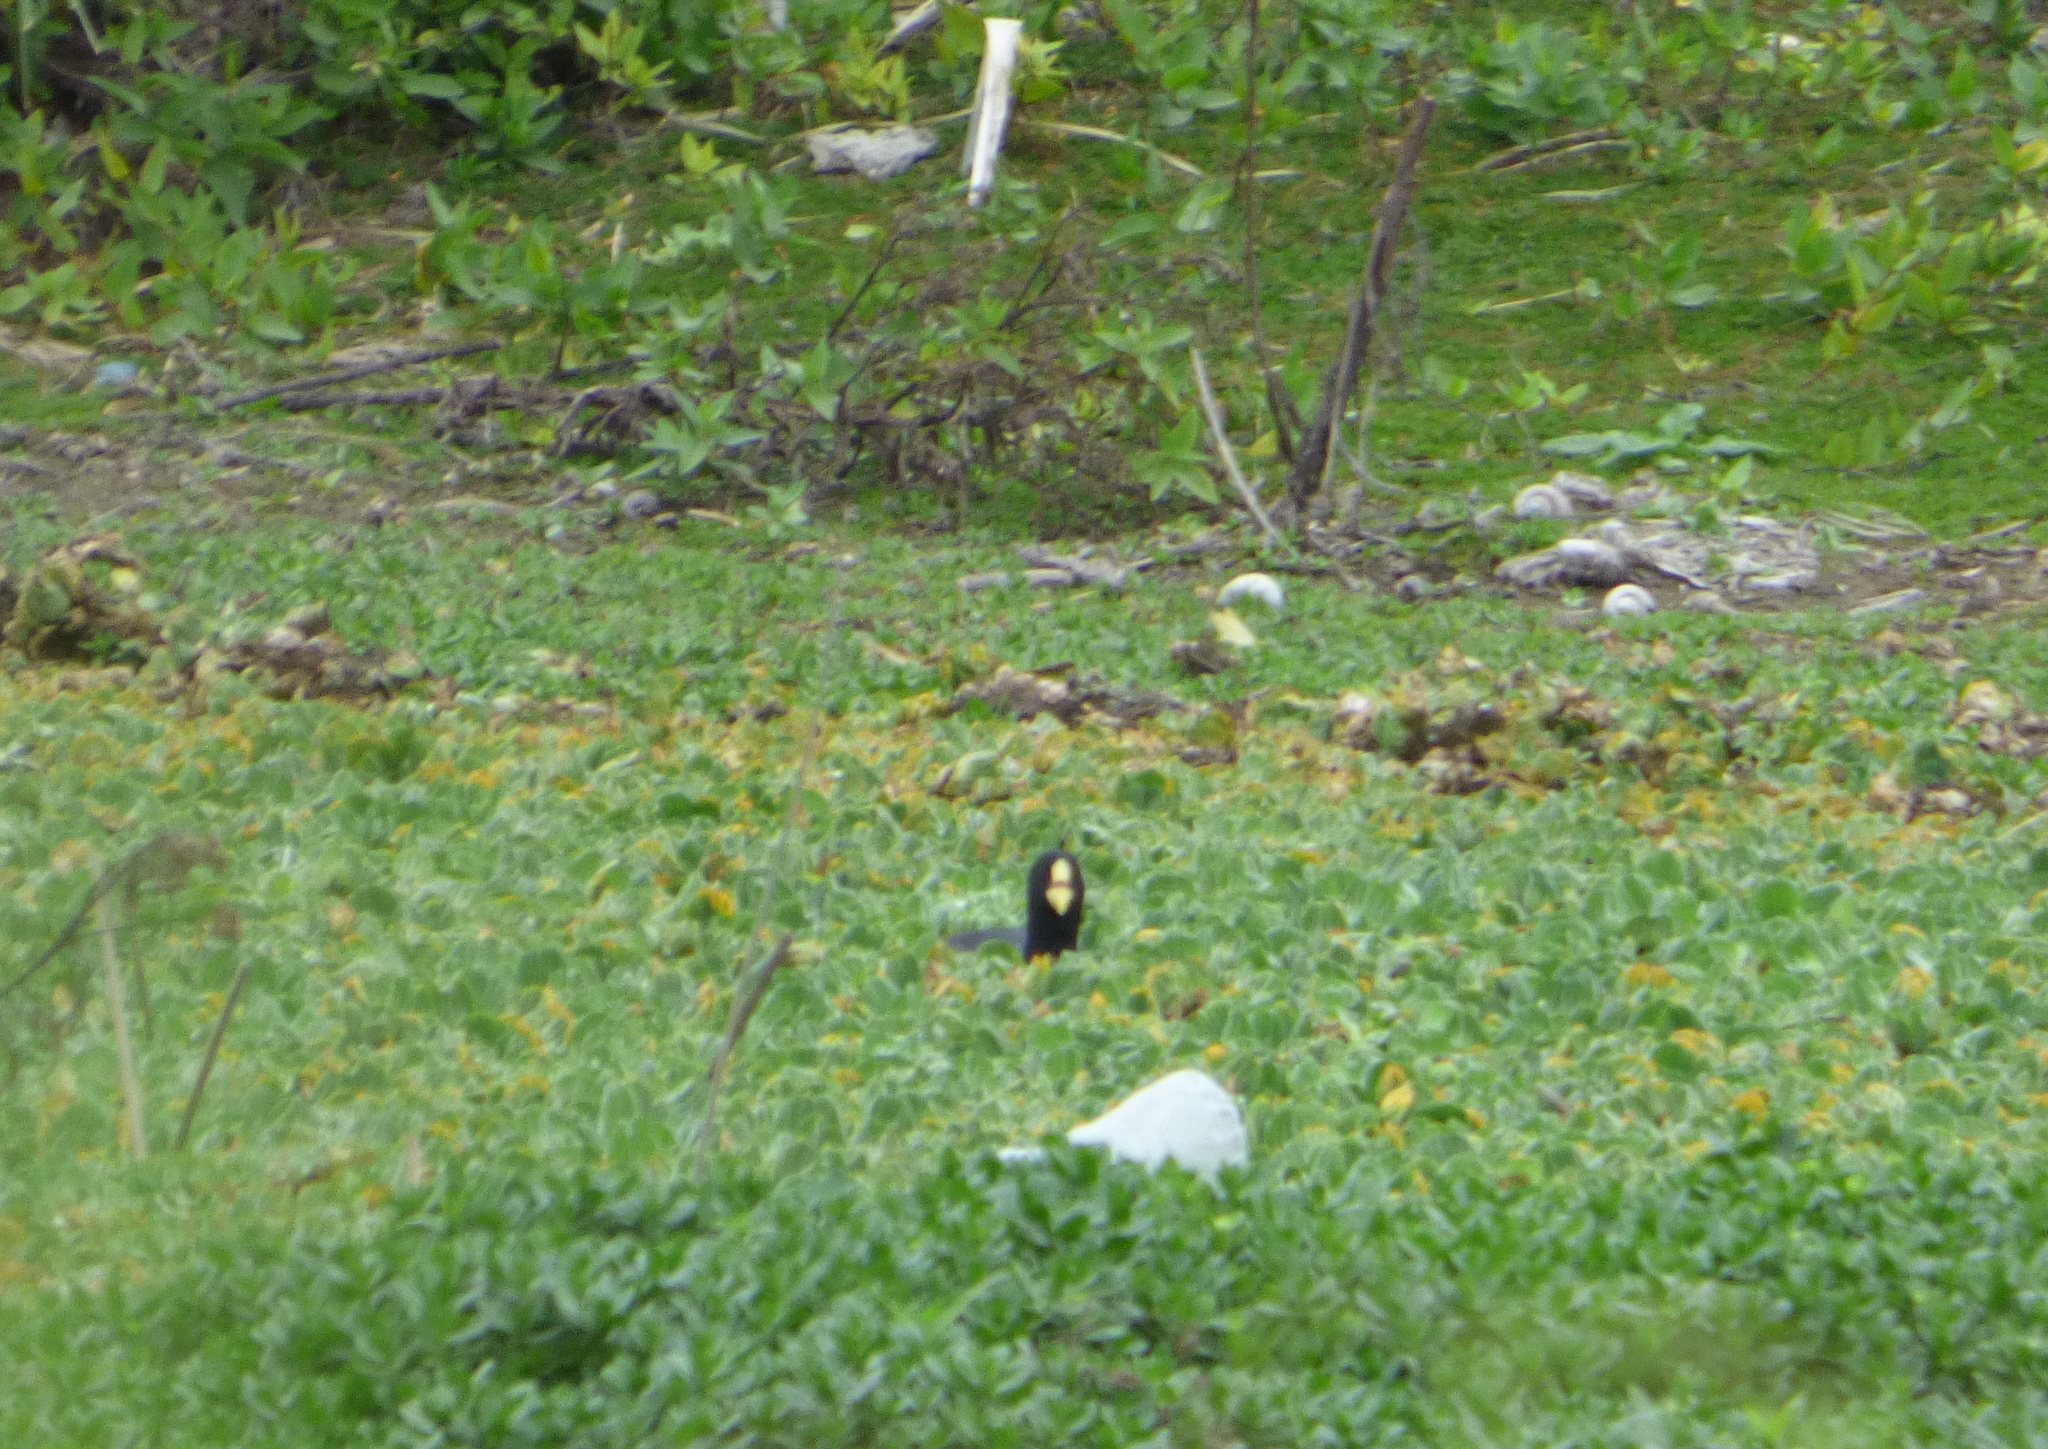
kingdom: Animalia
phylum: Chordata
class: Aves
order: Gruiformes
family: Rallidae
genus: Fulica
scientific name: Fulica armillata
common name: Red-gartered coot
